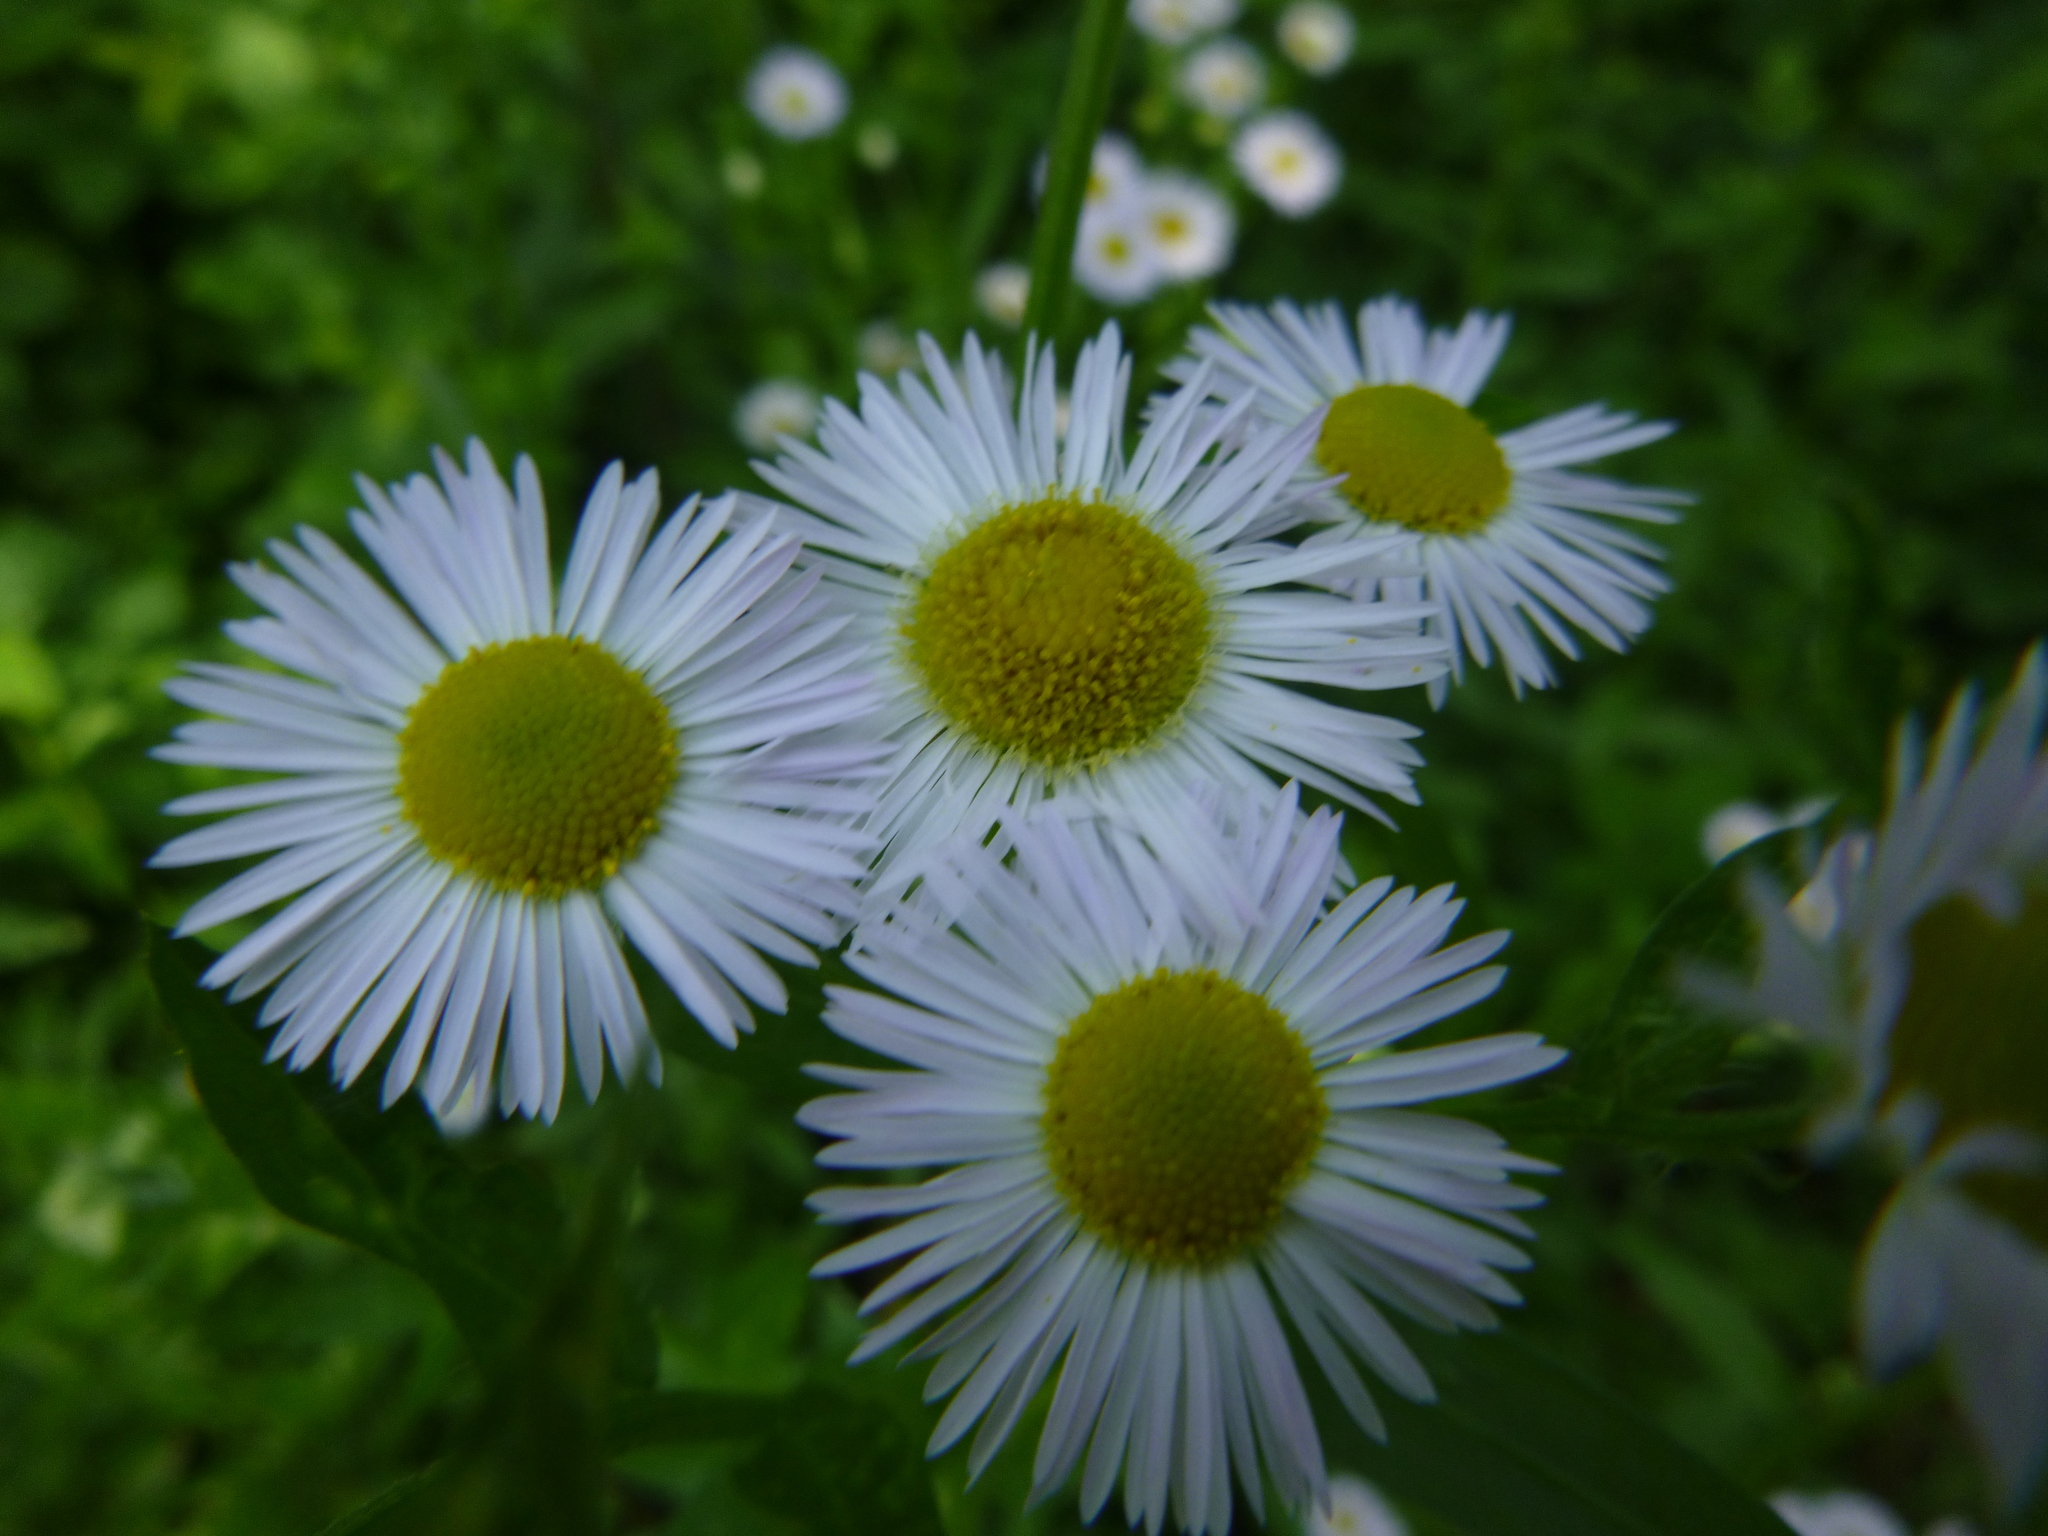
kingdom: Plantae
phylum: Tracheophyta
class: Magnoliopsida
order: Asterales
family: Asteraceae
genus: Erigeron
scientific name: Erigeron annuus
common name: Tall fleabane
